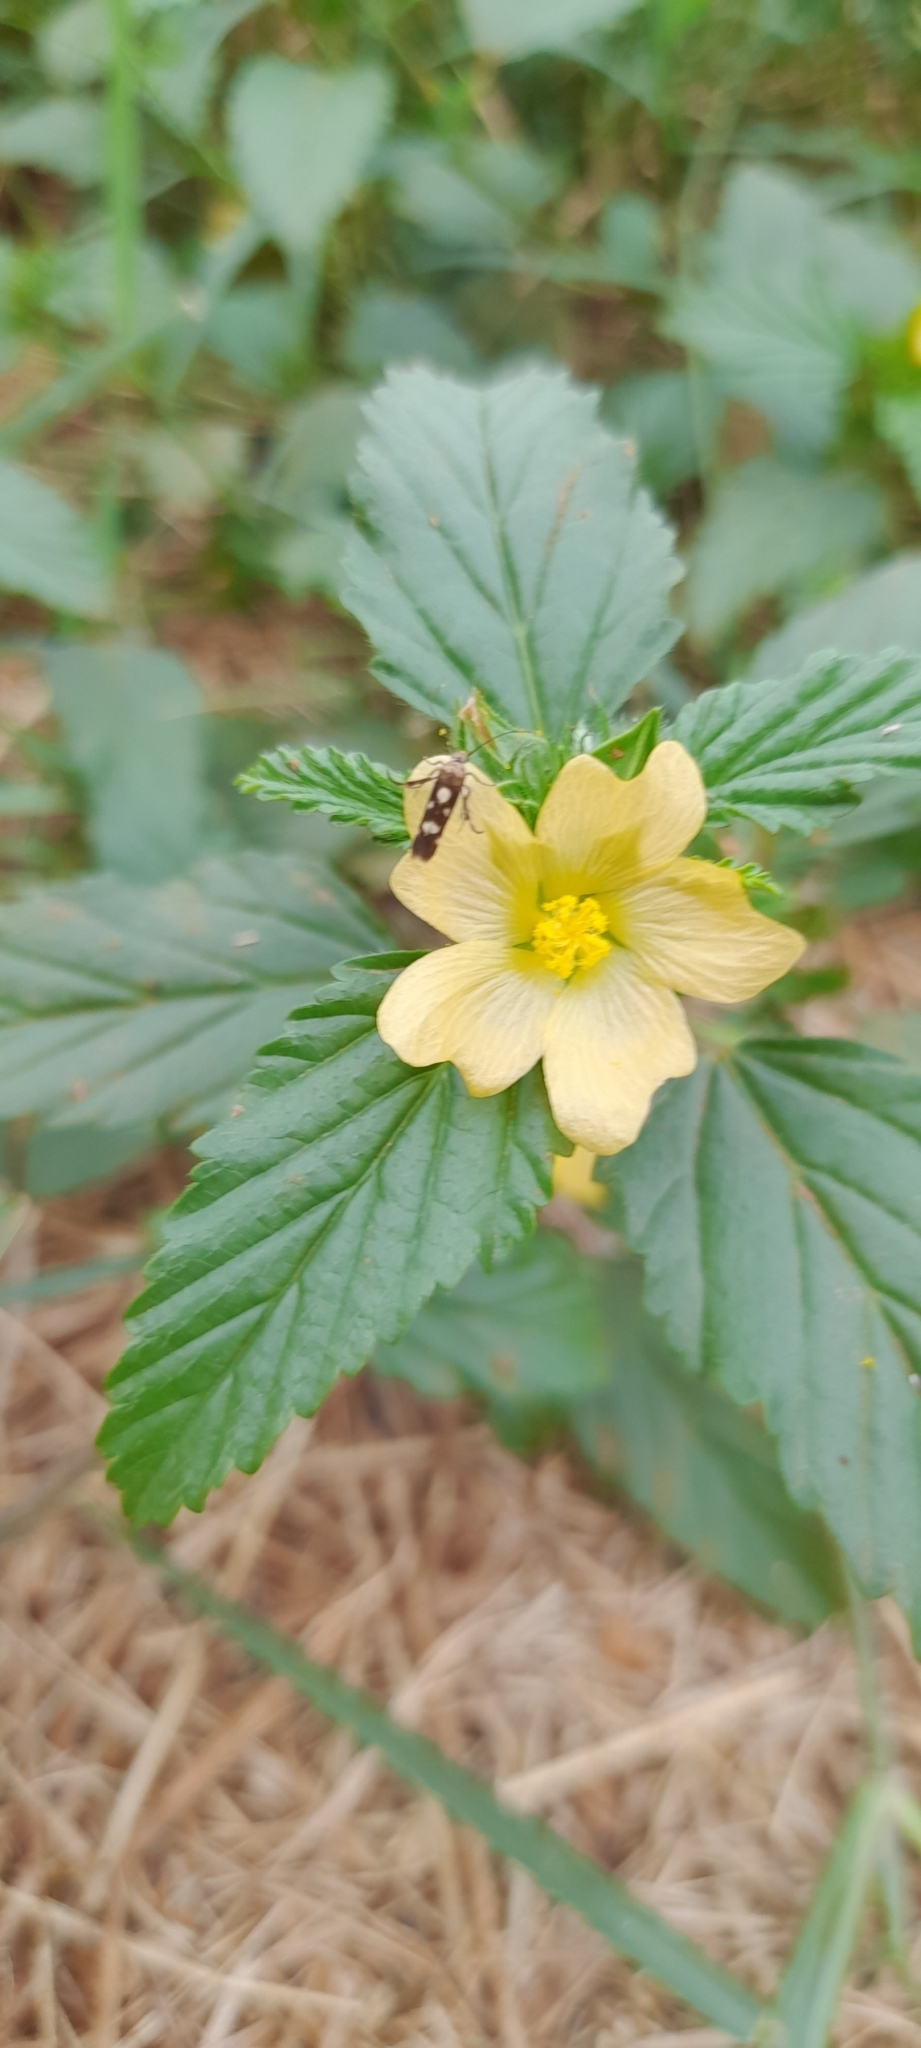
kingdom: Animalia
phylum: Arthropoda
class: Insecta
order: Lepidoptera
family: Scythrididae
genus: Eretmocera
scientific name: Eretmocera impactella
